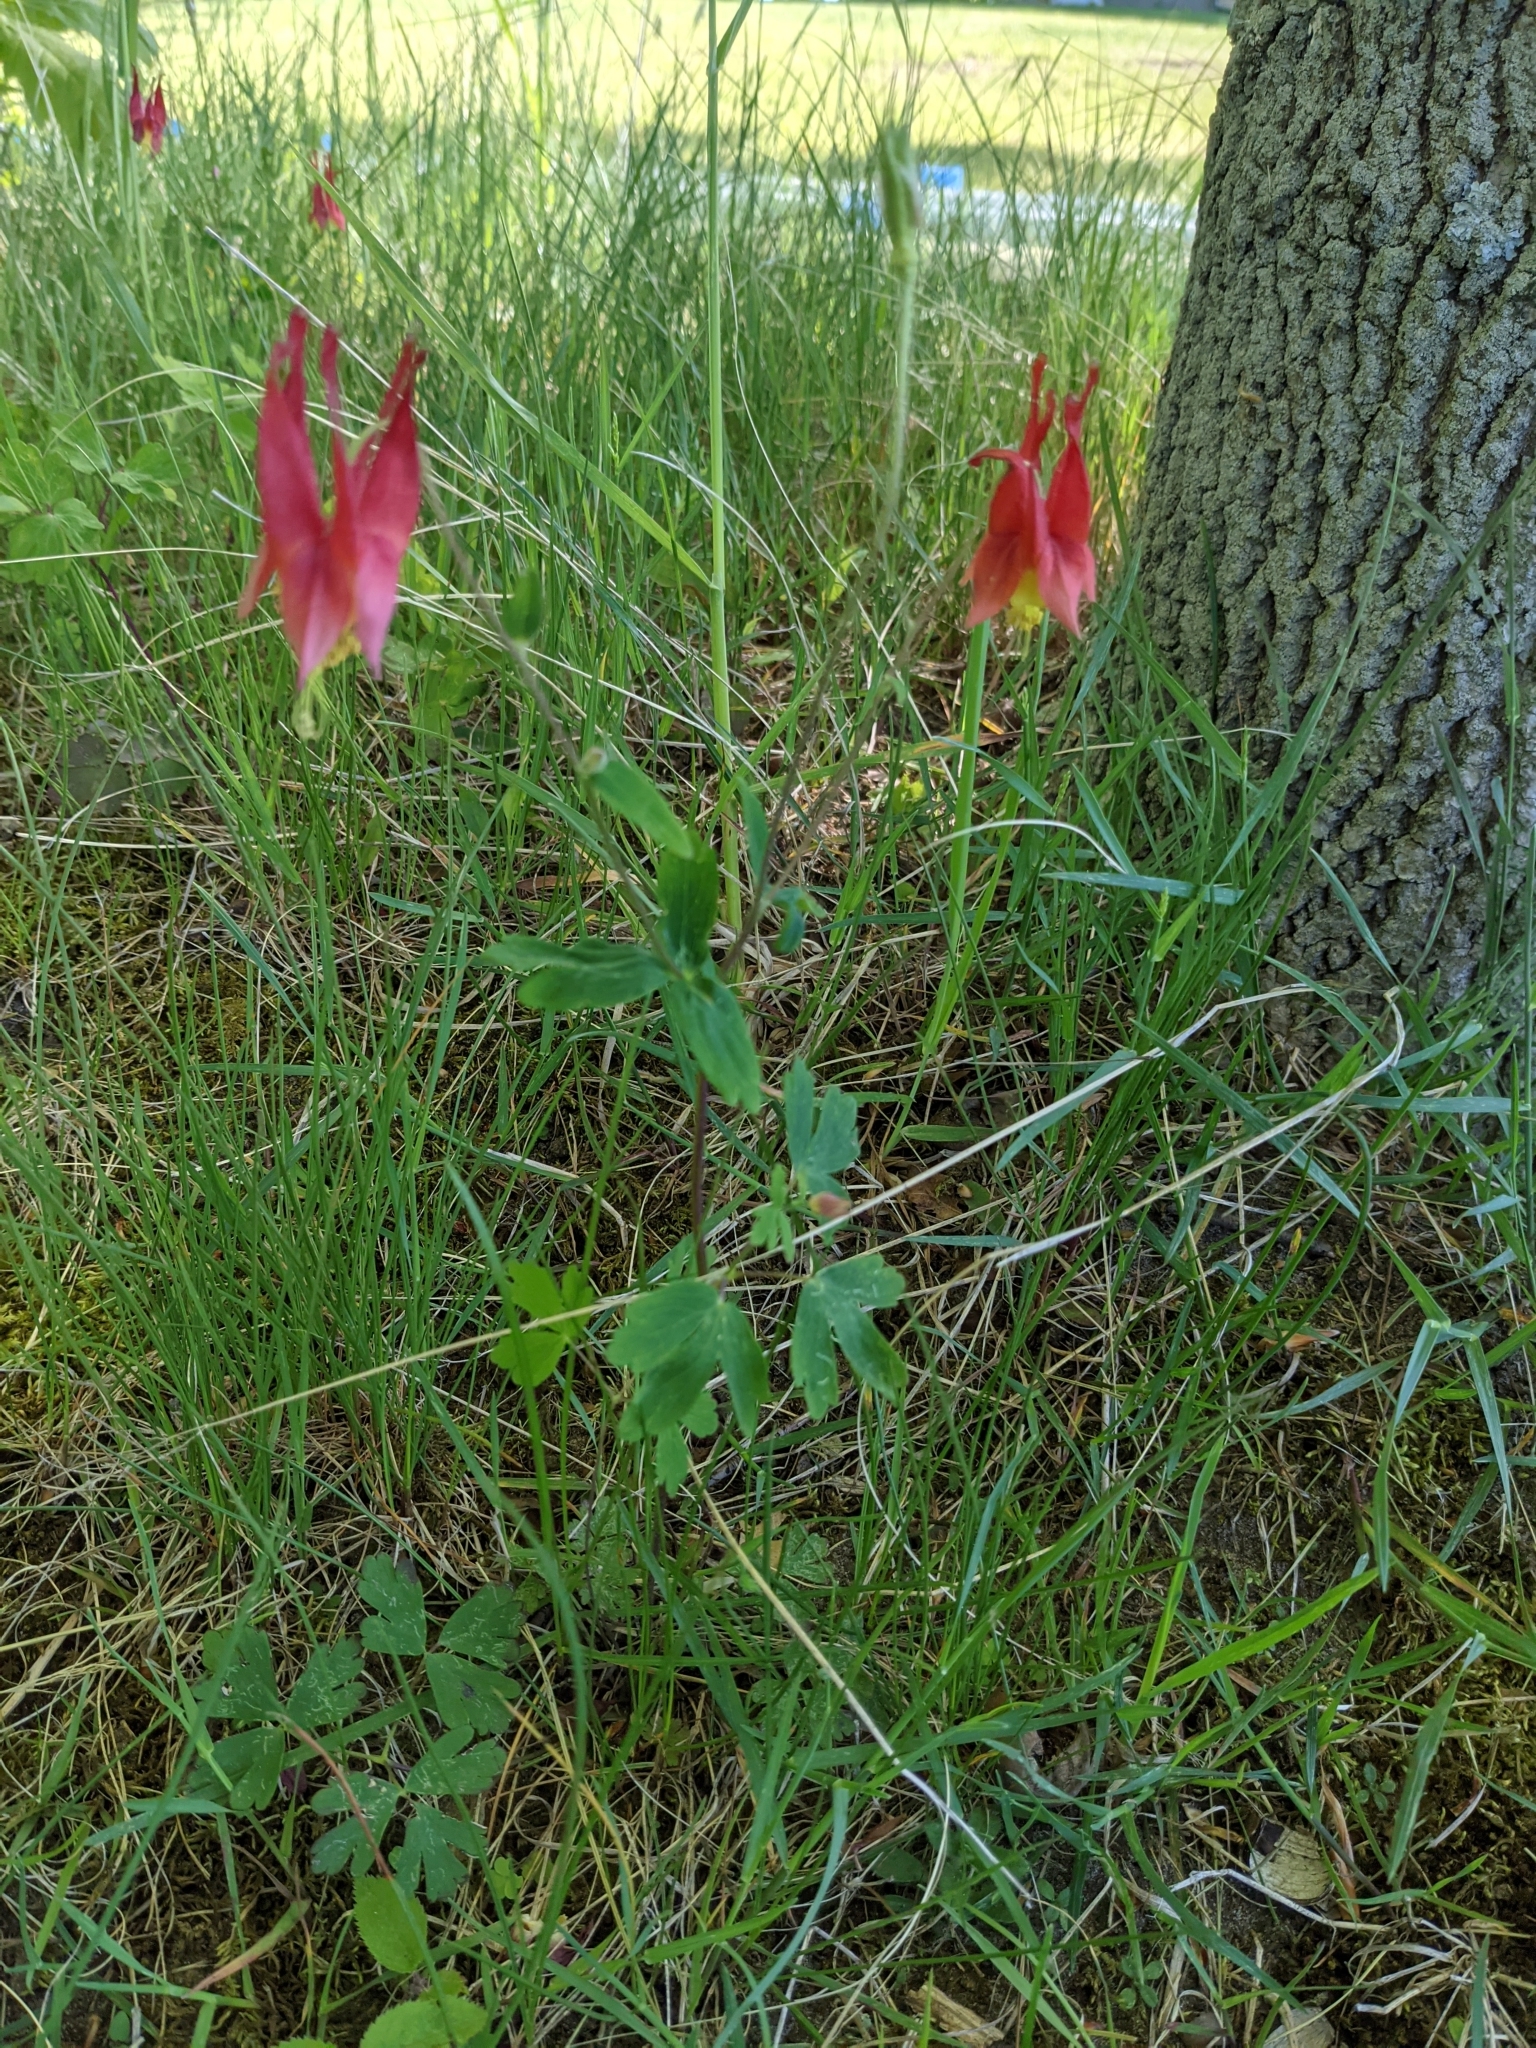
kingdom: Plantae
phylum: Tracheophyta
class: Magnoliopsida
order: Ranunculales
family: Ranunculaceae
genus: Aquilegia
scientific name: Aquilegia canadensis
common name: American columbine
